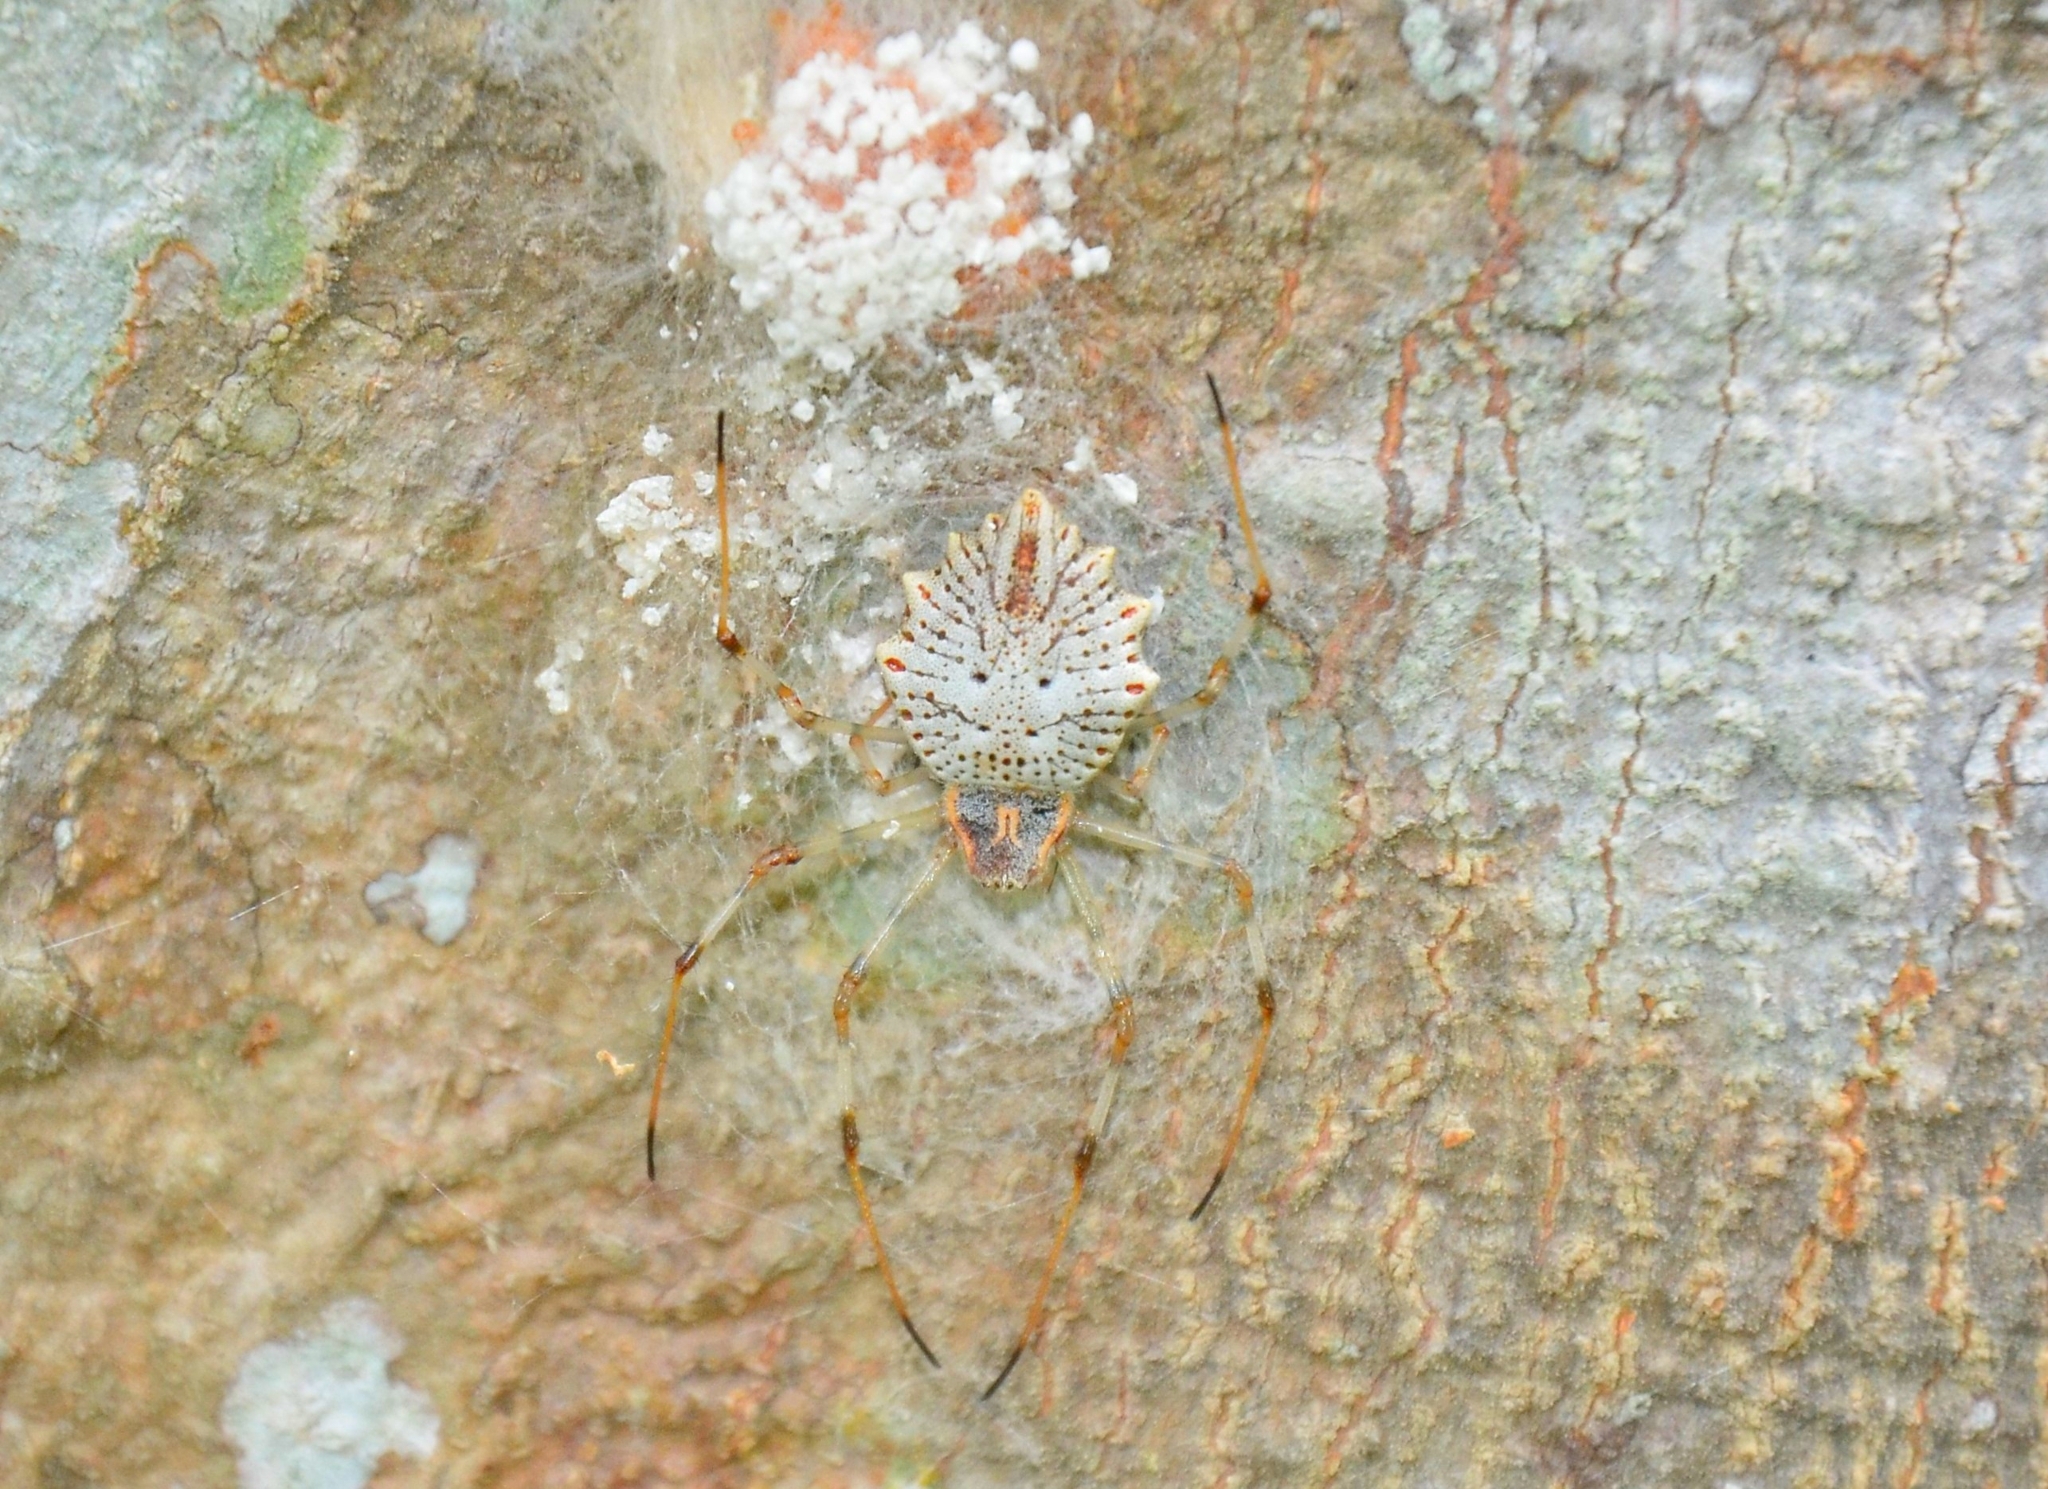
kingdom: Animalia
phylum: Arthropoda
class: Arachnida
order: Araneae
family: Araneidae
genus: Herennia
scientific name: Herennia multipuncta
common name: Spotted coin spider
